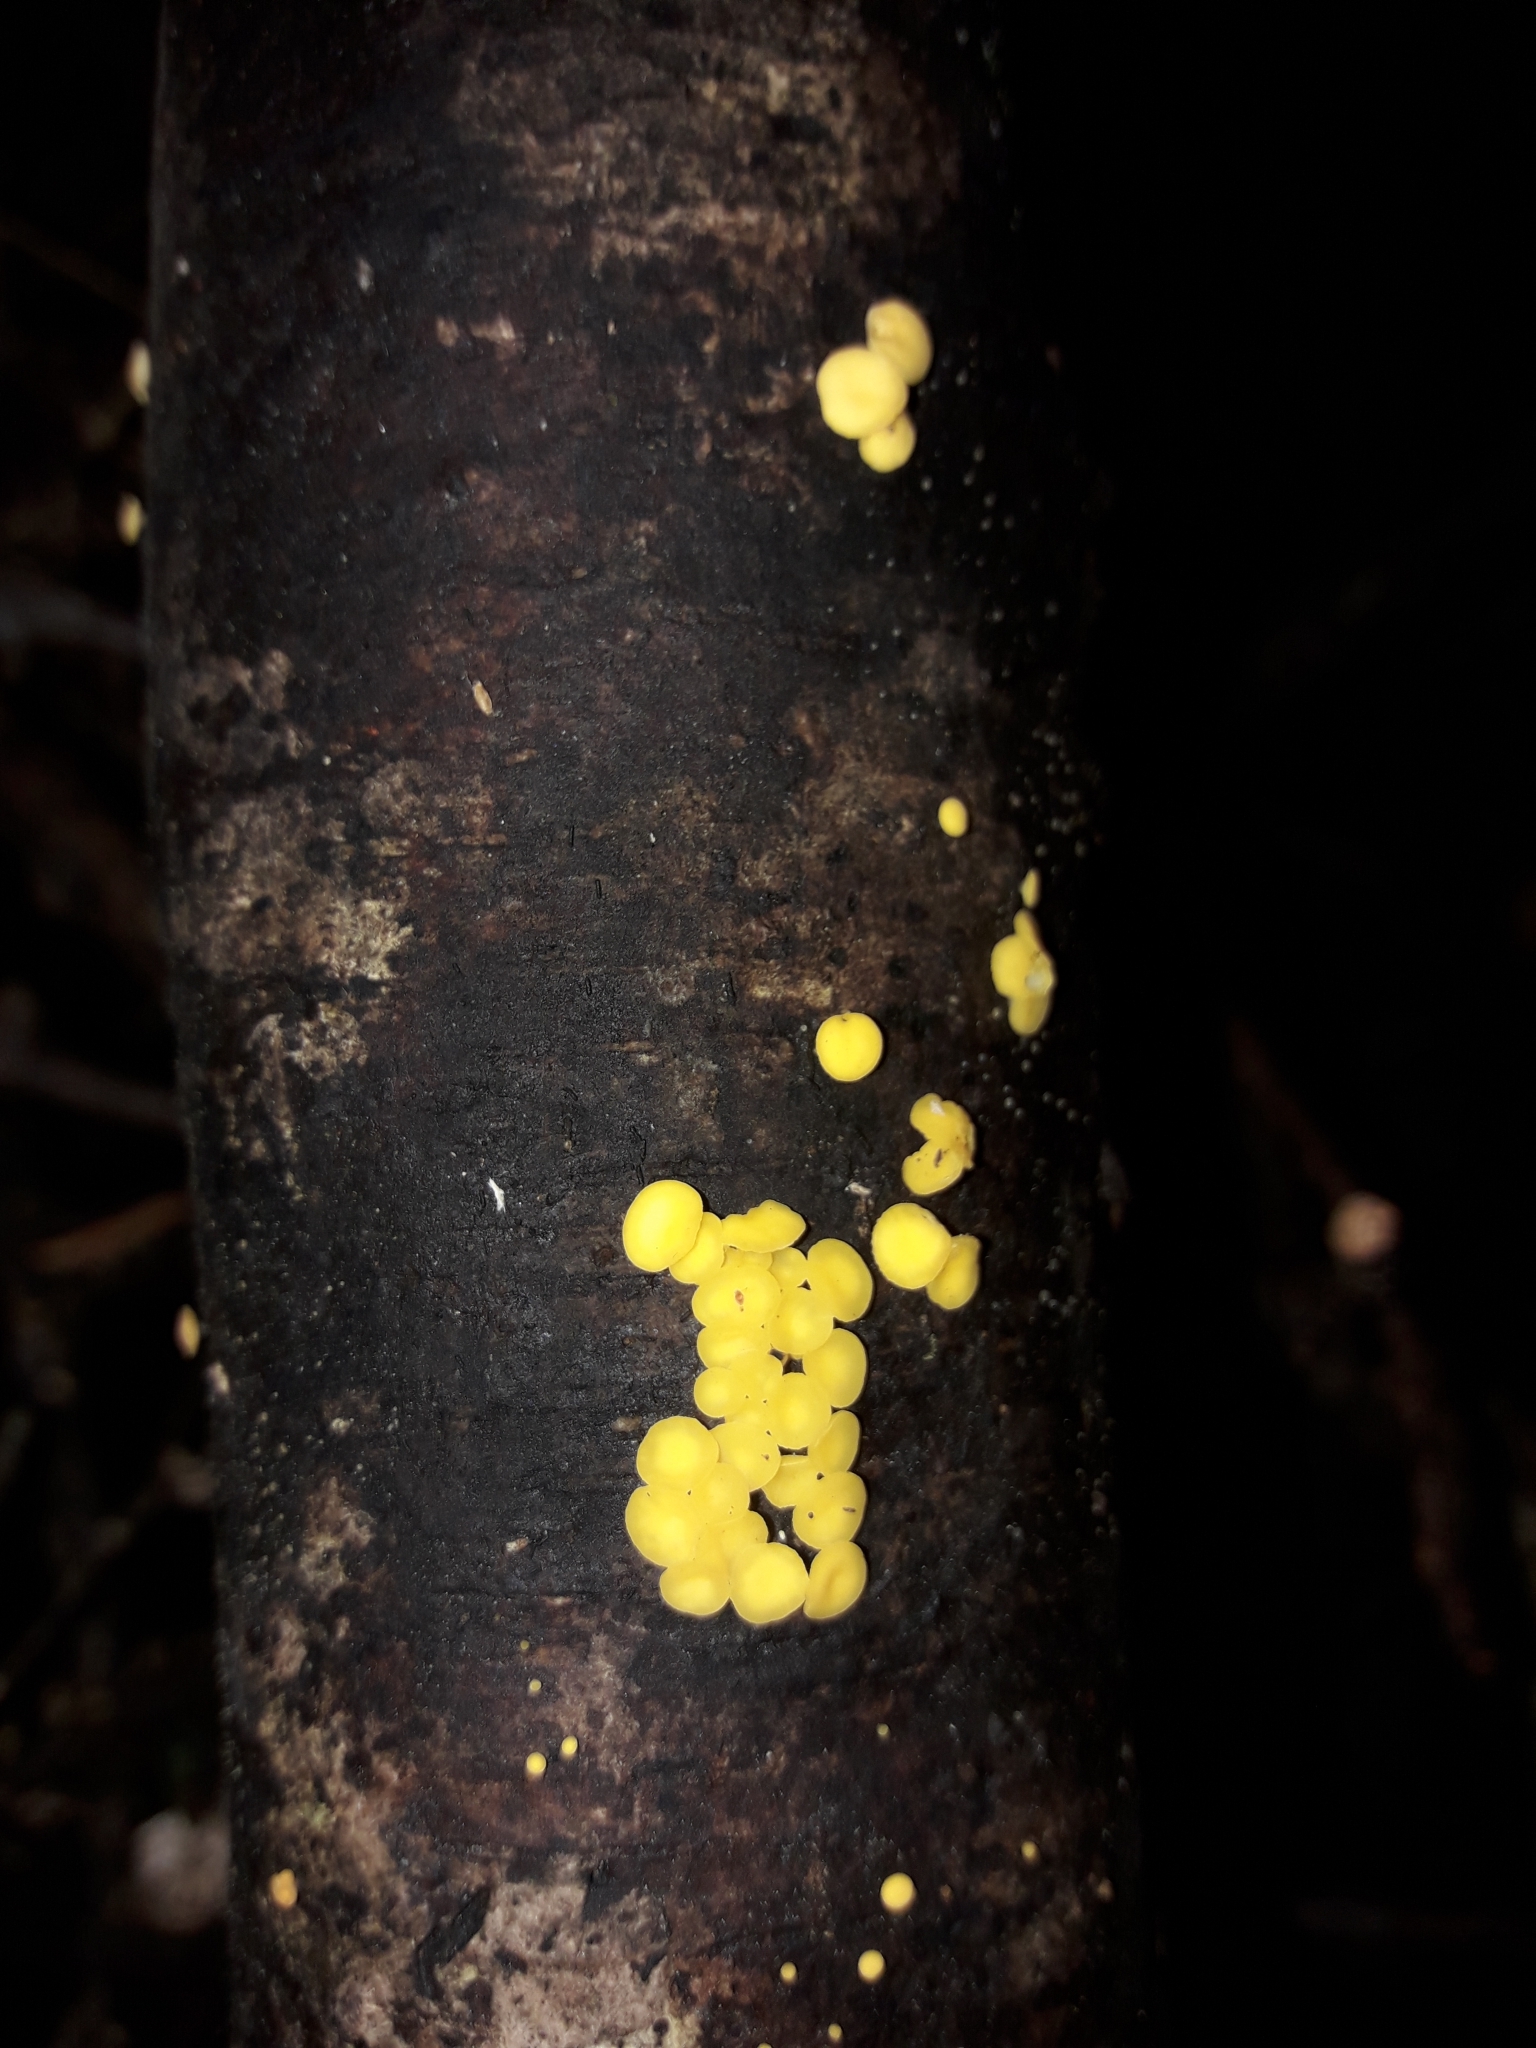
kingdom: Fungi
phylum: Ascomycota
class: Leotiomycetes
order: Helotiales
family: Pezizellaceae
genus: Calycina
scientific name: Calycina citrina
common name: Yellow fairy cups
